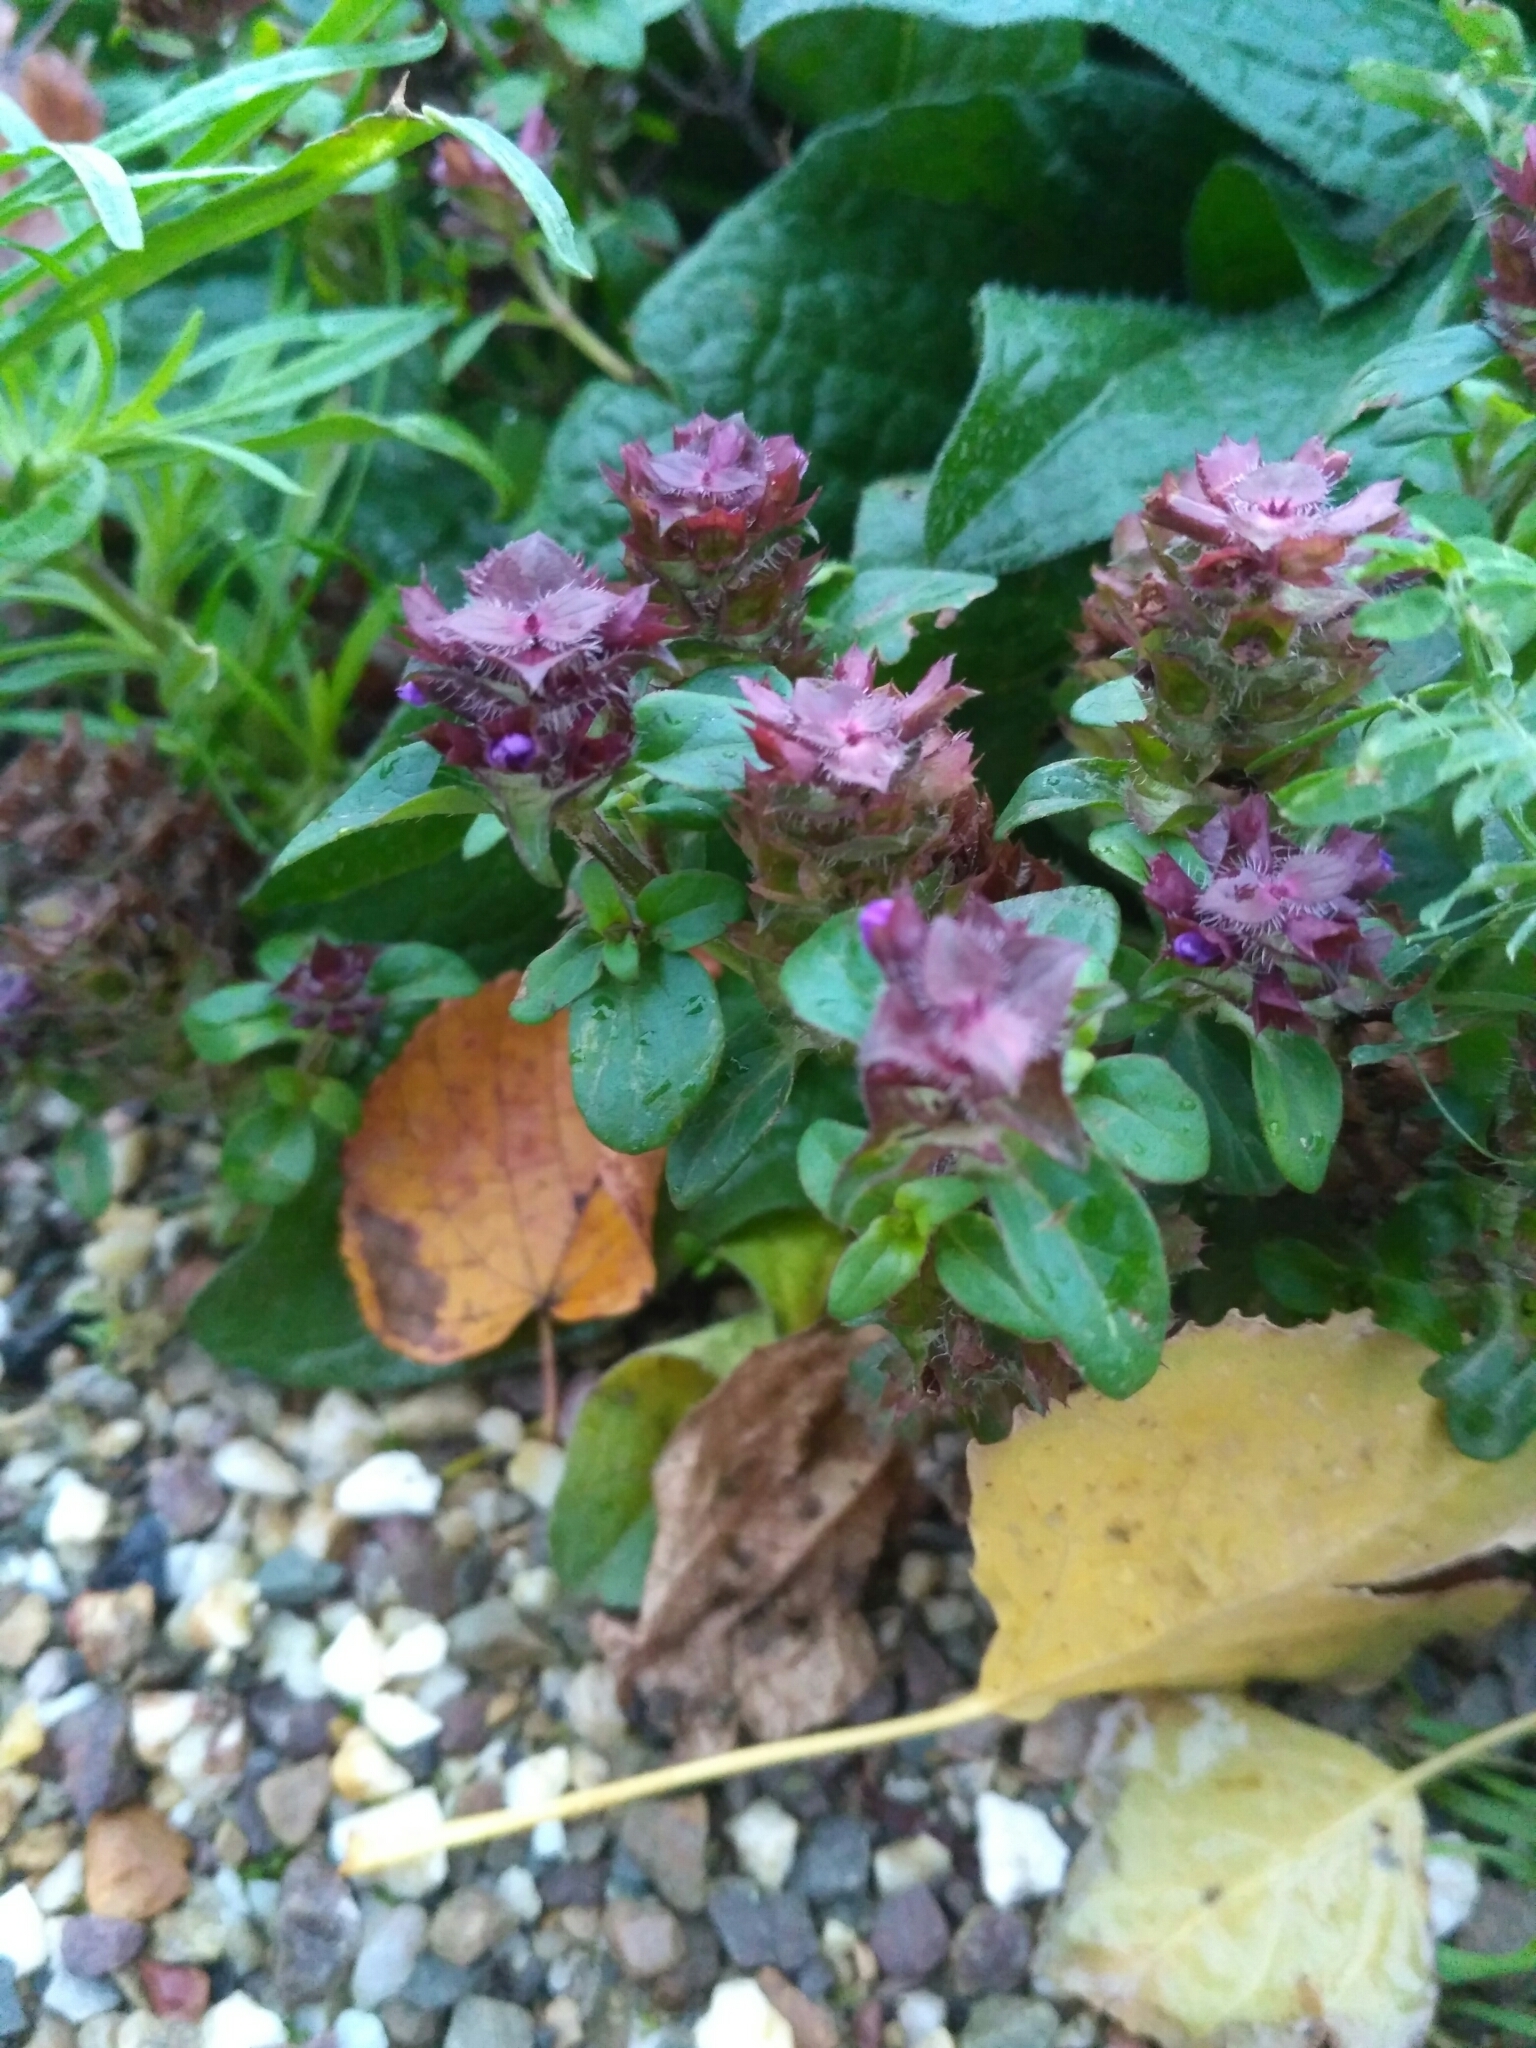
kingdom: Plantae
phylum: Tracheophyta
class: Magnoliopsida
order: Lamiales
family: Lamiaceae
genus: Prunella
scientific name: Prunella vulgaris
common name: Heal-all
